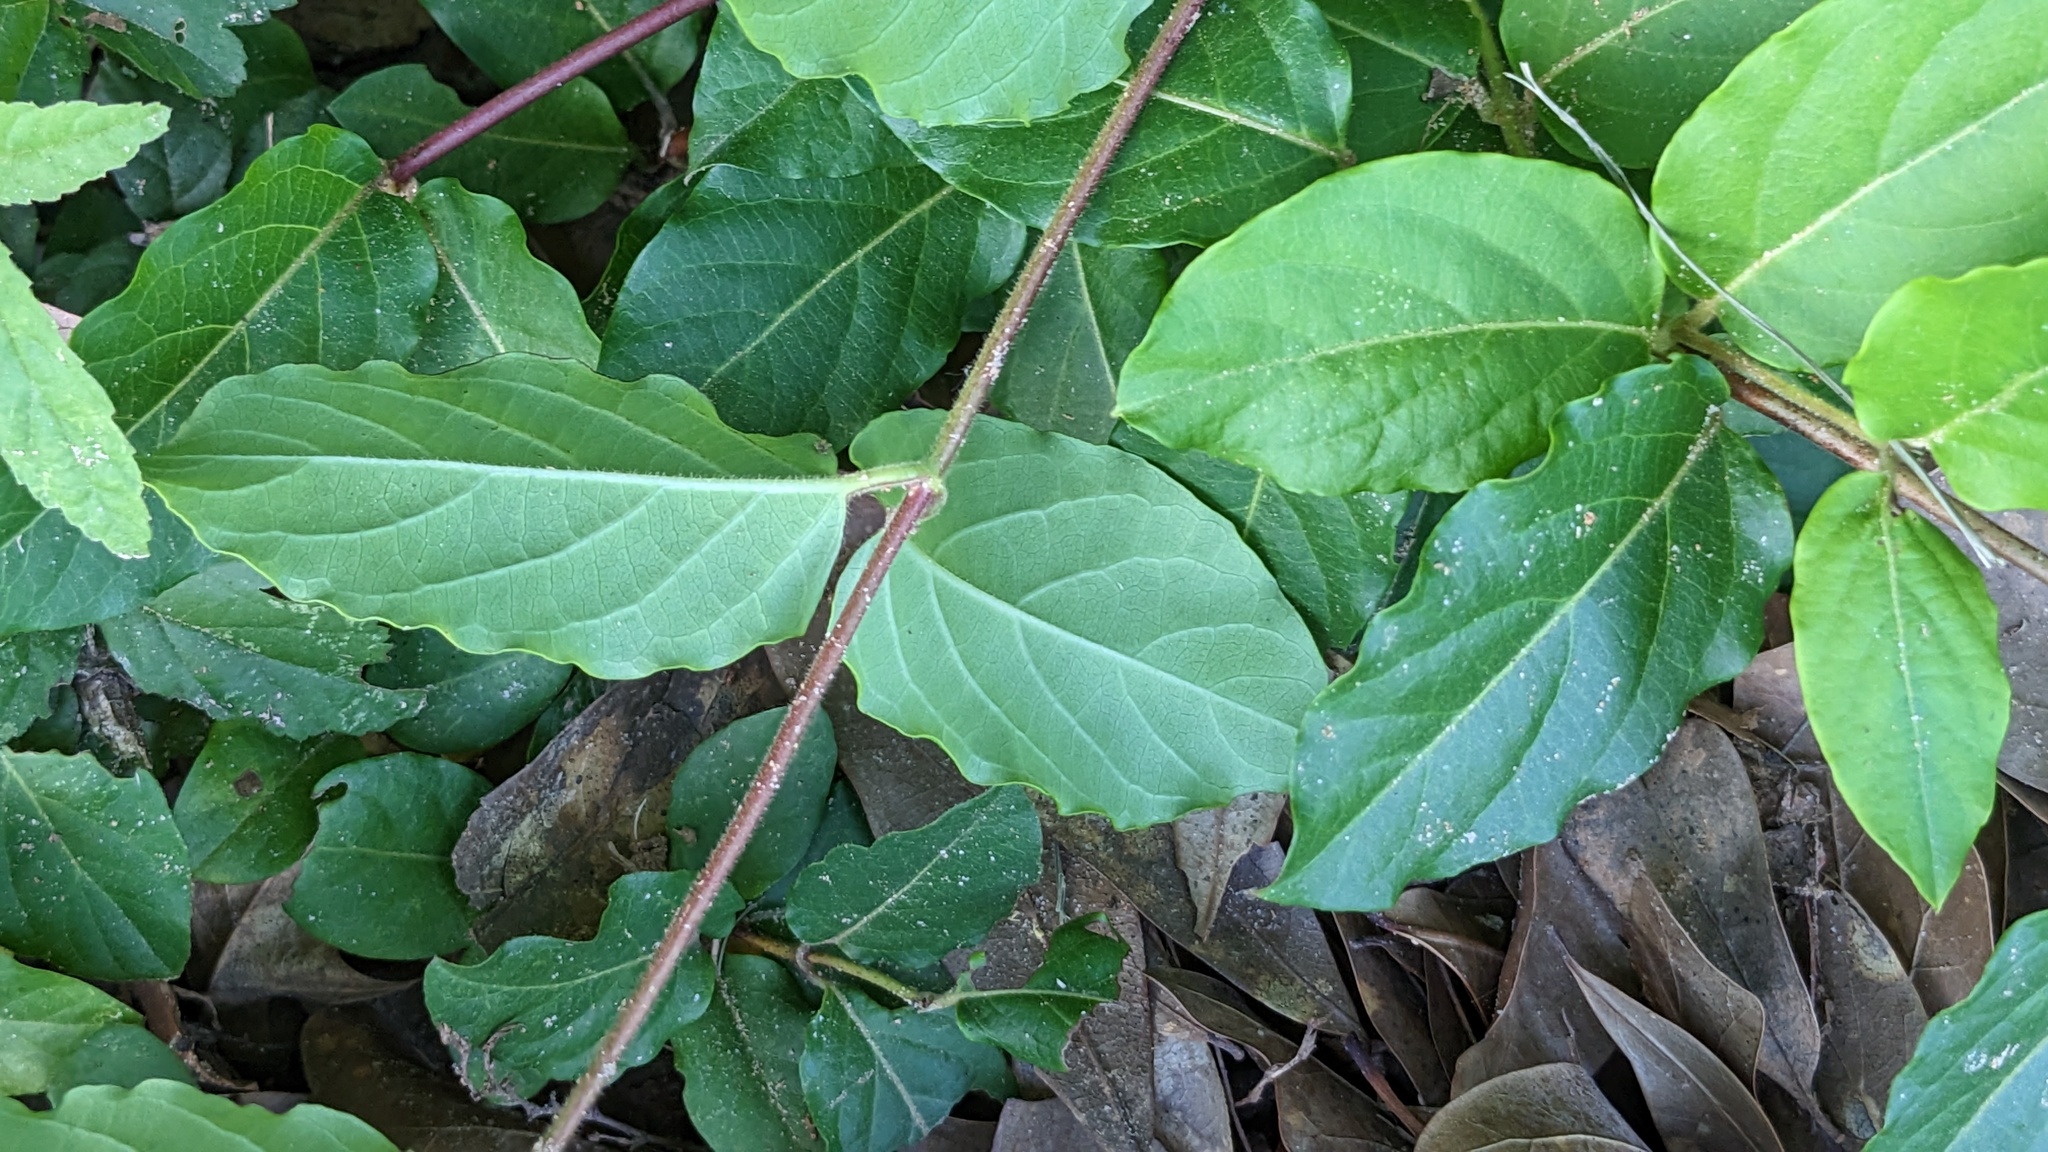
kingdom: Plantae
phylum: Tracheophyta
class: Magnoliopsida
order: Dipsacales
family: Caprifoliaceae
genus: Lonicera
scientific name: Lonicera japonica
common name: Japanese honeysuckle
